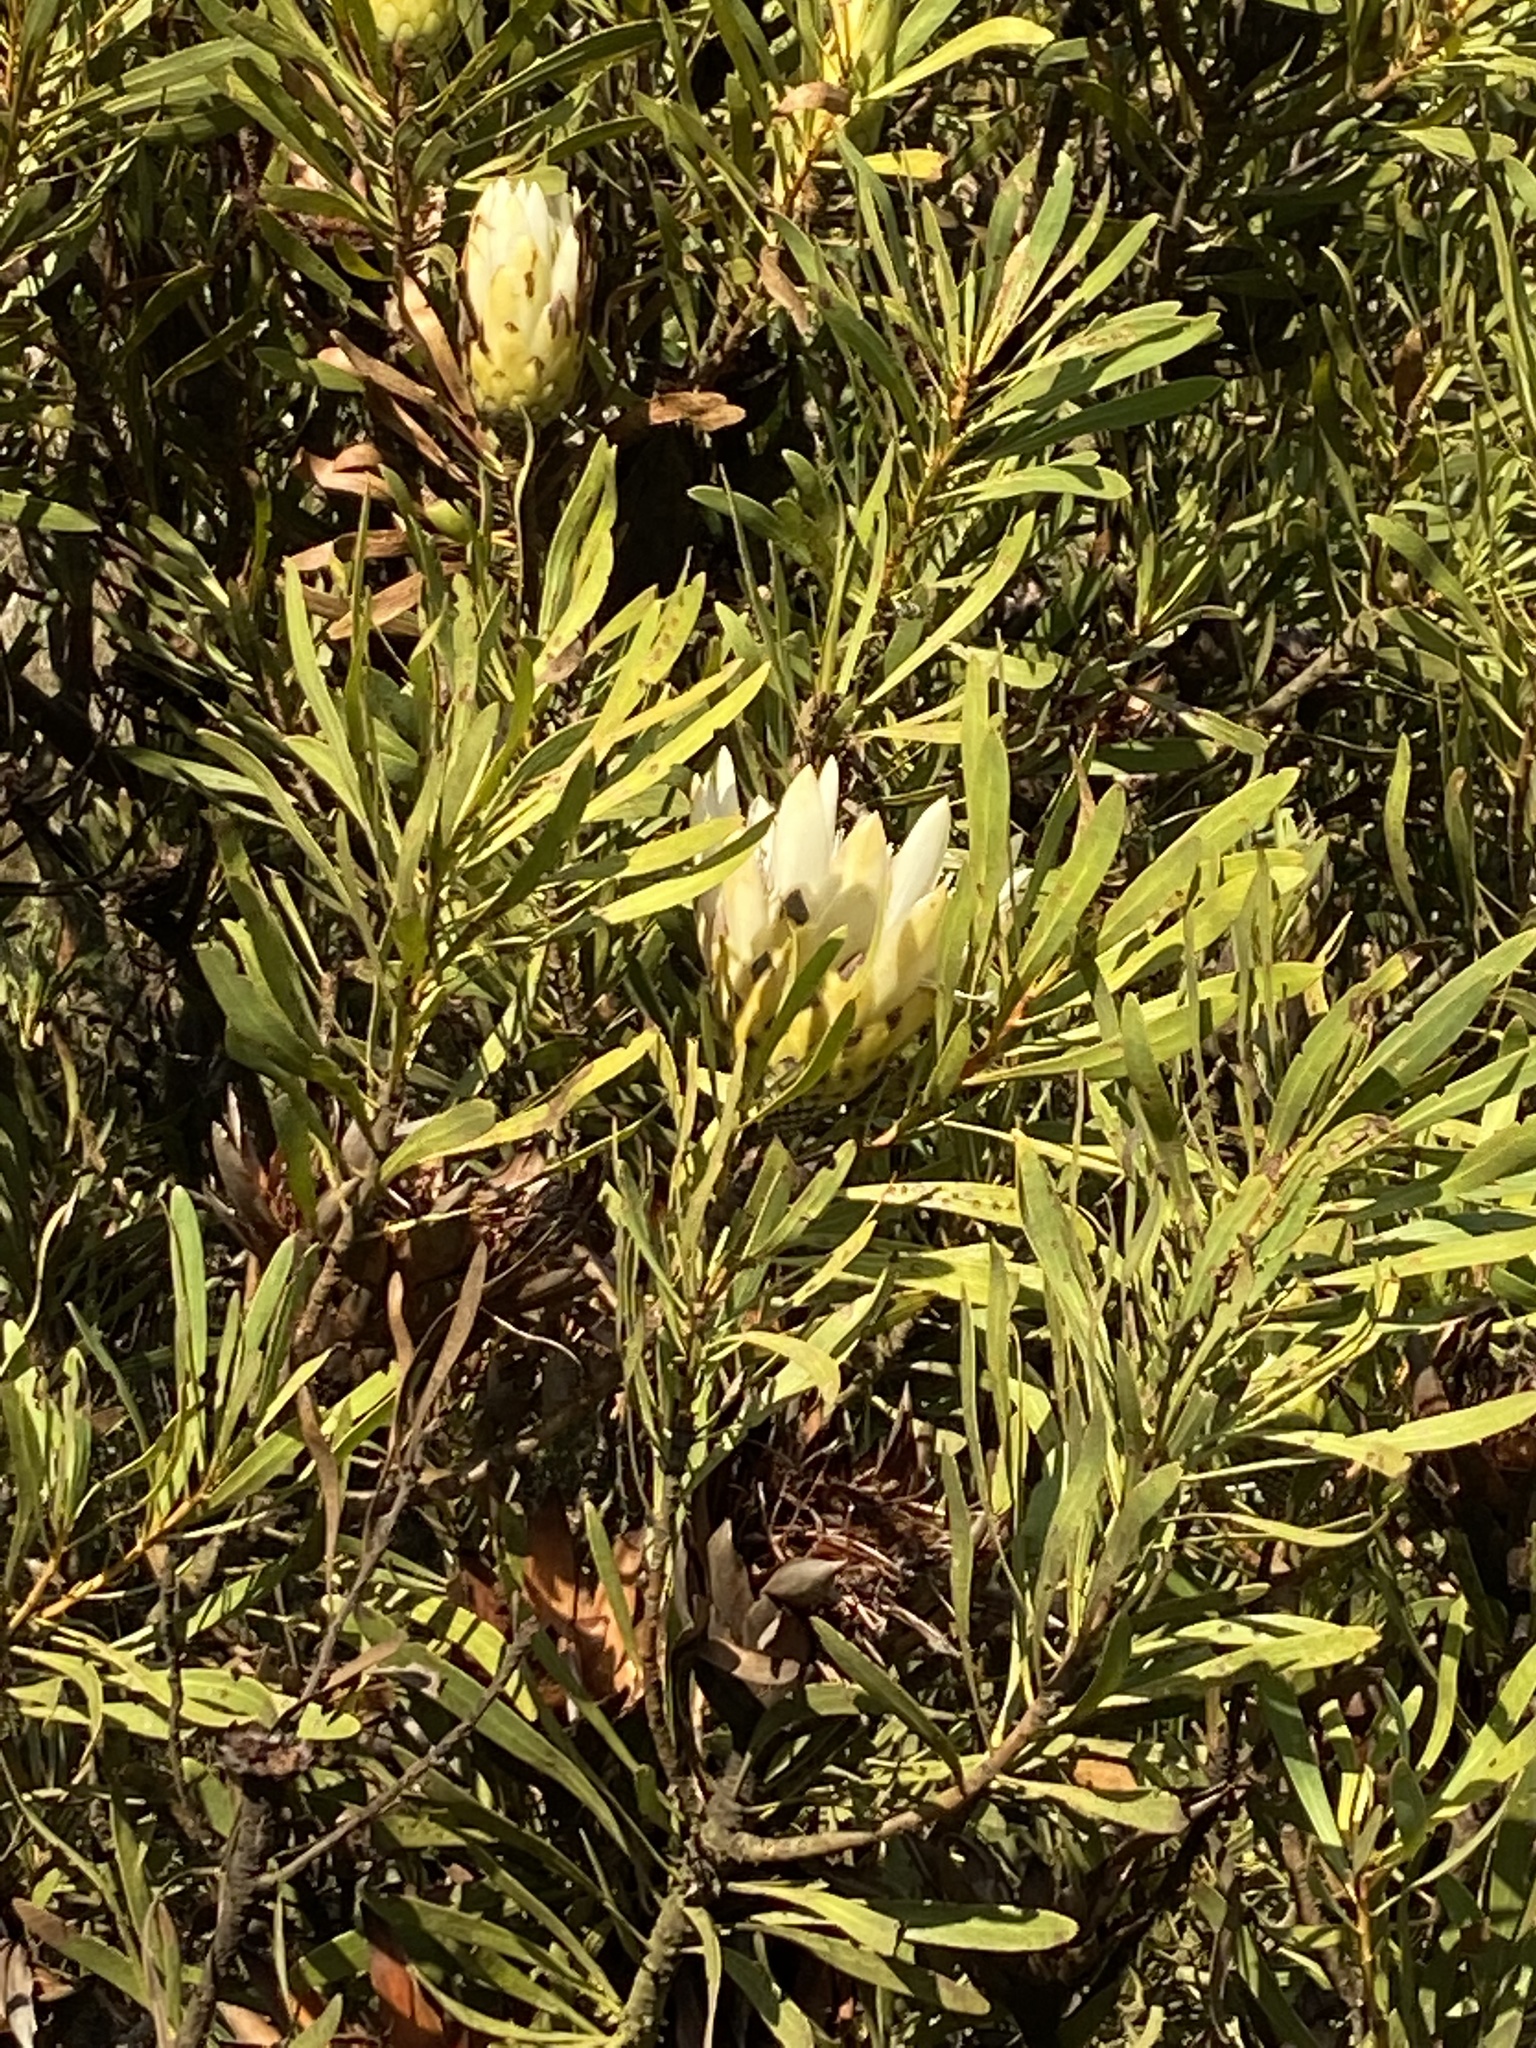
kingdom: Plantae
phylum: Tracheophyta
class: Magnoliopsida
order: Proteales
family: Proteaceae
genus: Protea
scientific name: Protea repens
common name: Sugarbush
